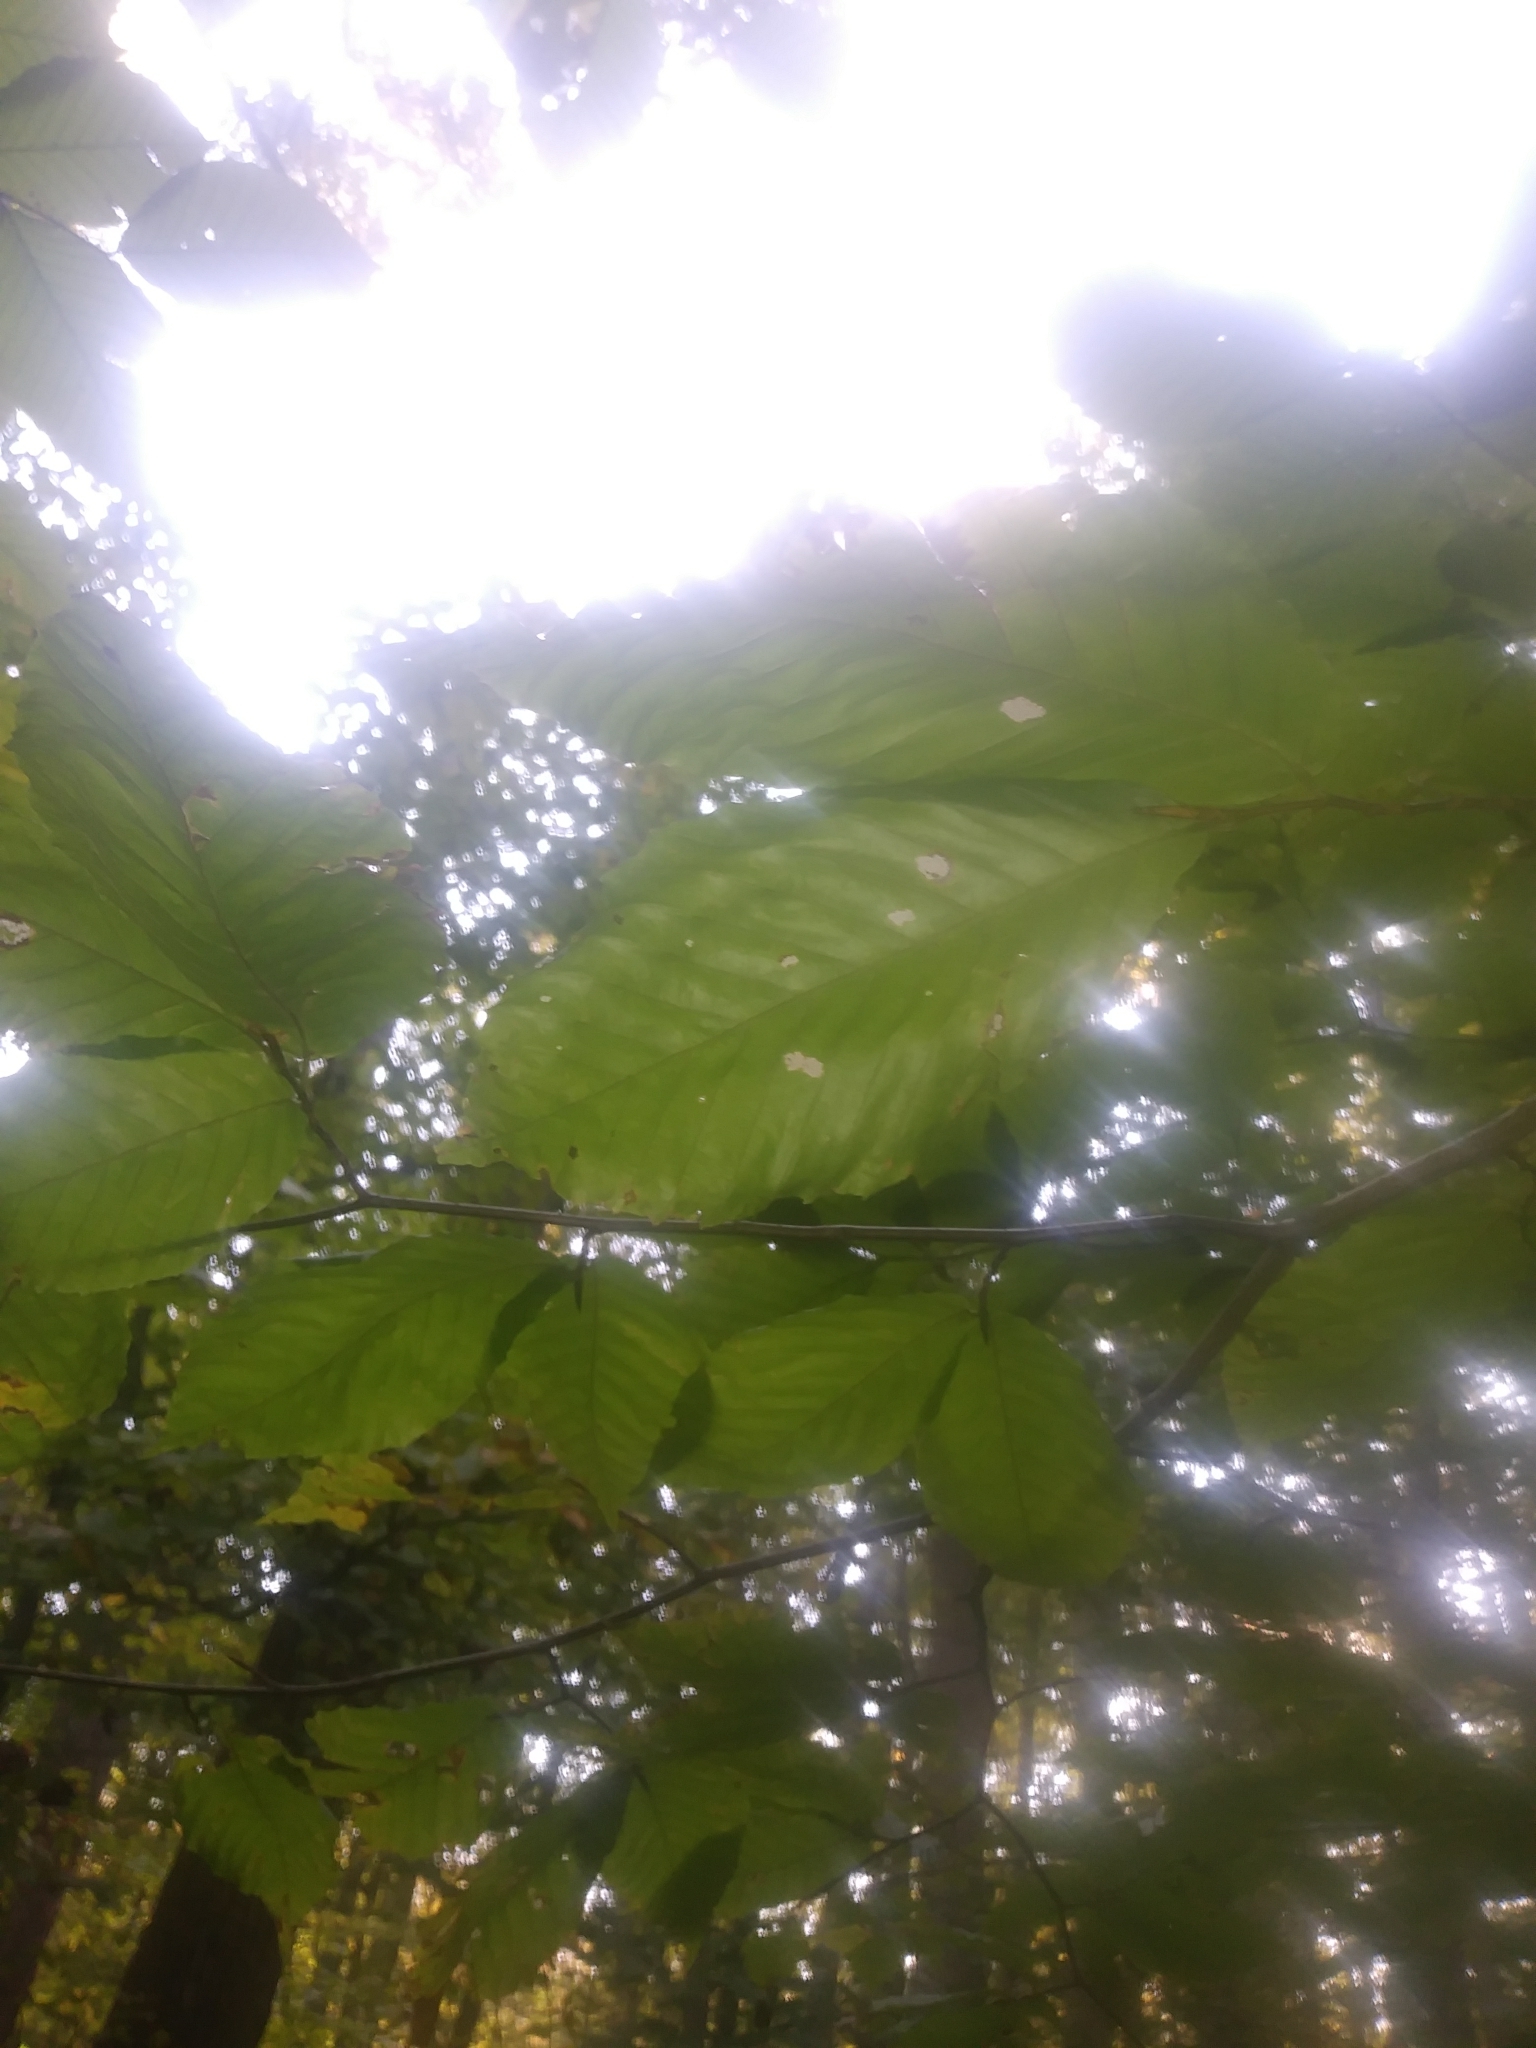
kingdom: Plantae
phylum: Tracheophyta
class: Magnoliopsida
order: Fagales
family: Fagaceae
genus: Fagus
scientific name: Fagus grandifolia
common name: American beech
